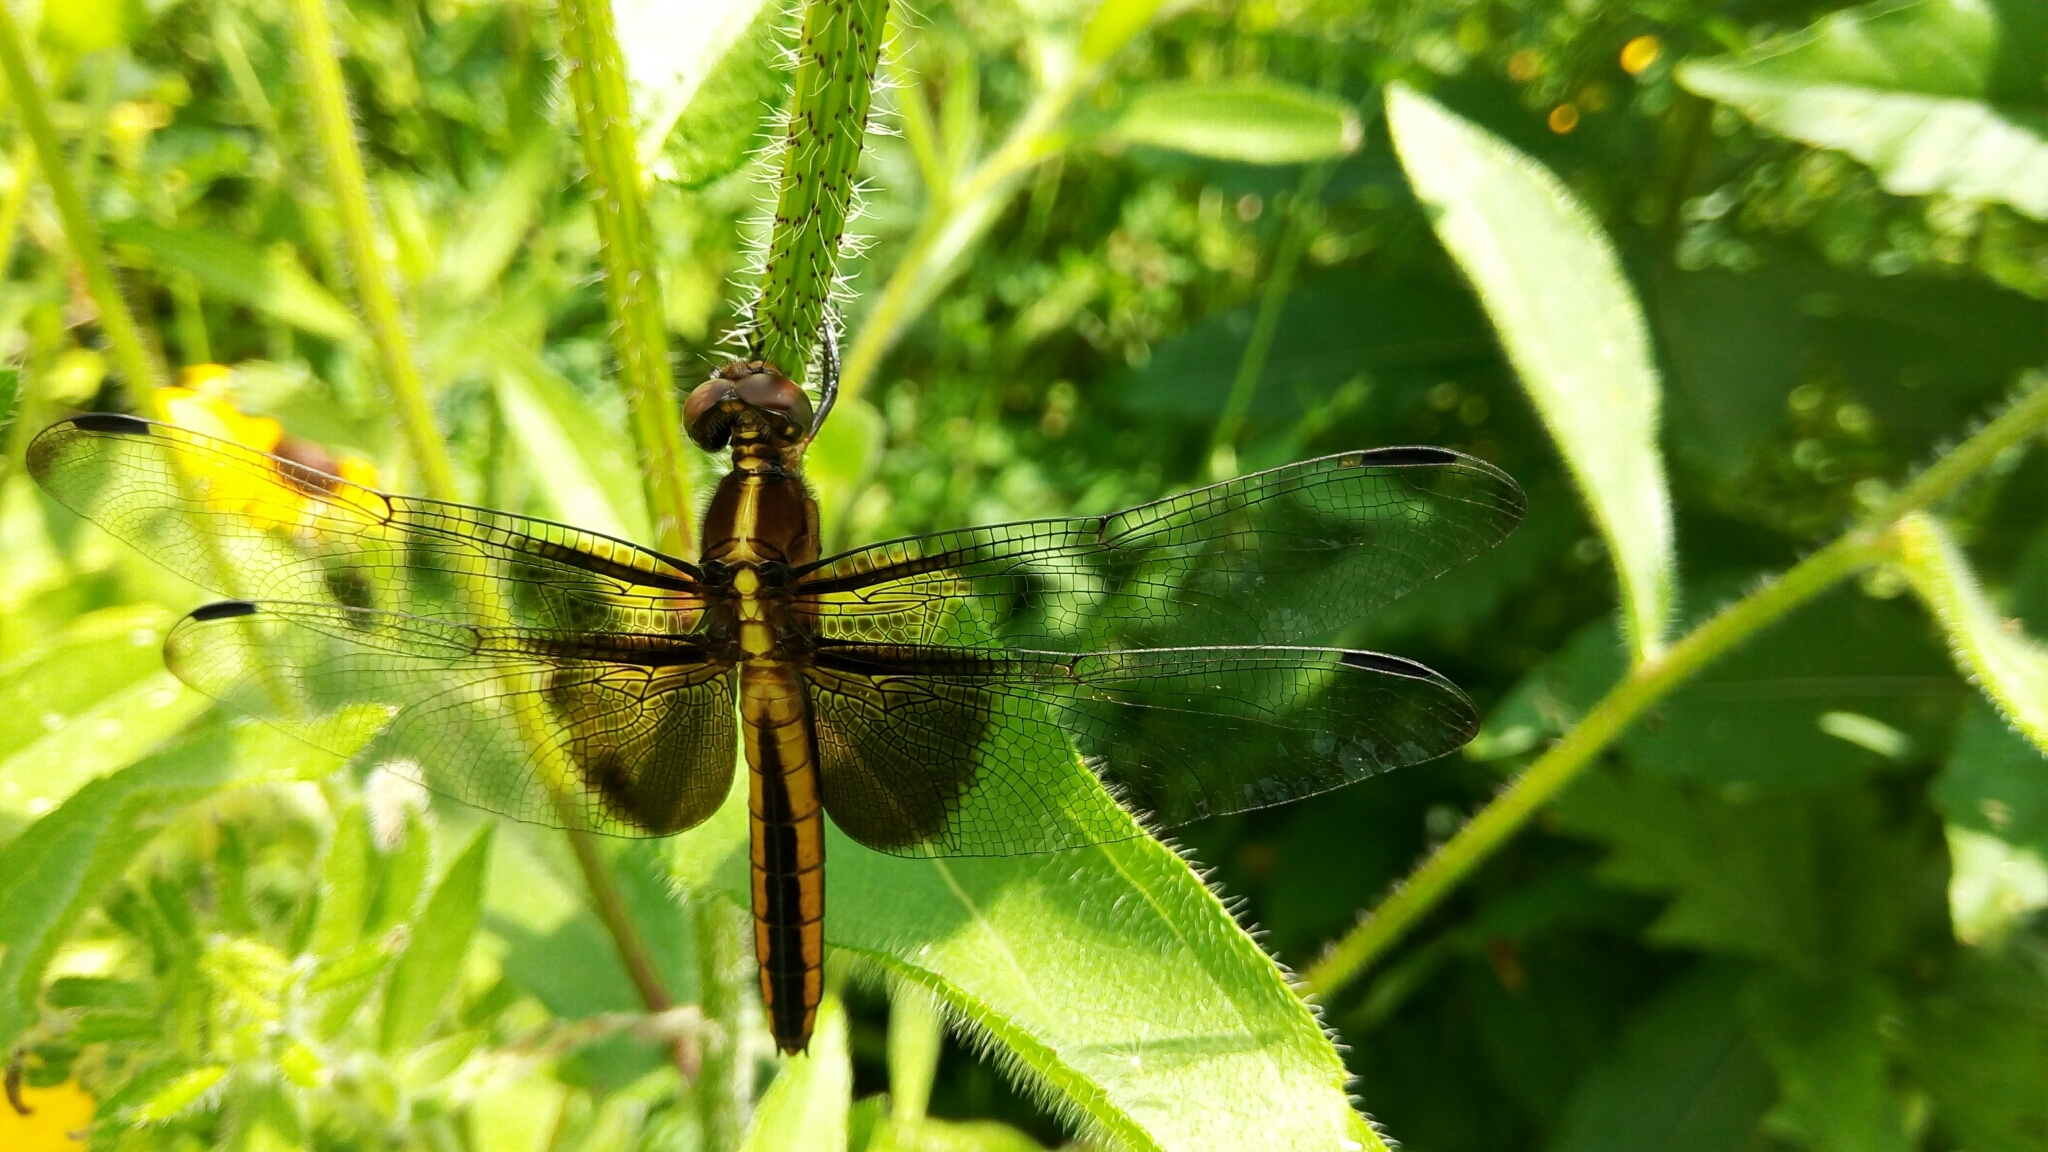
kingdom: Animalia
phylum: Arthropoda
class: Insecta
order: Odonata
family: Libellulidae
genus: Libellula
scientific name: Libellula luctuosa
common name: Widow skimmer
